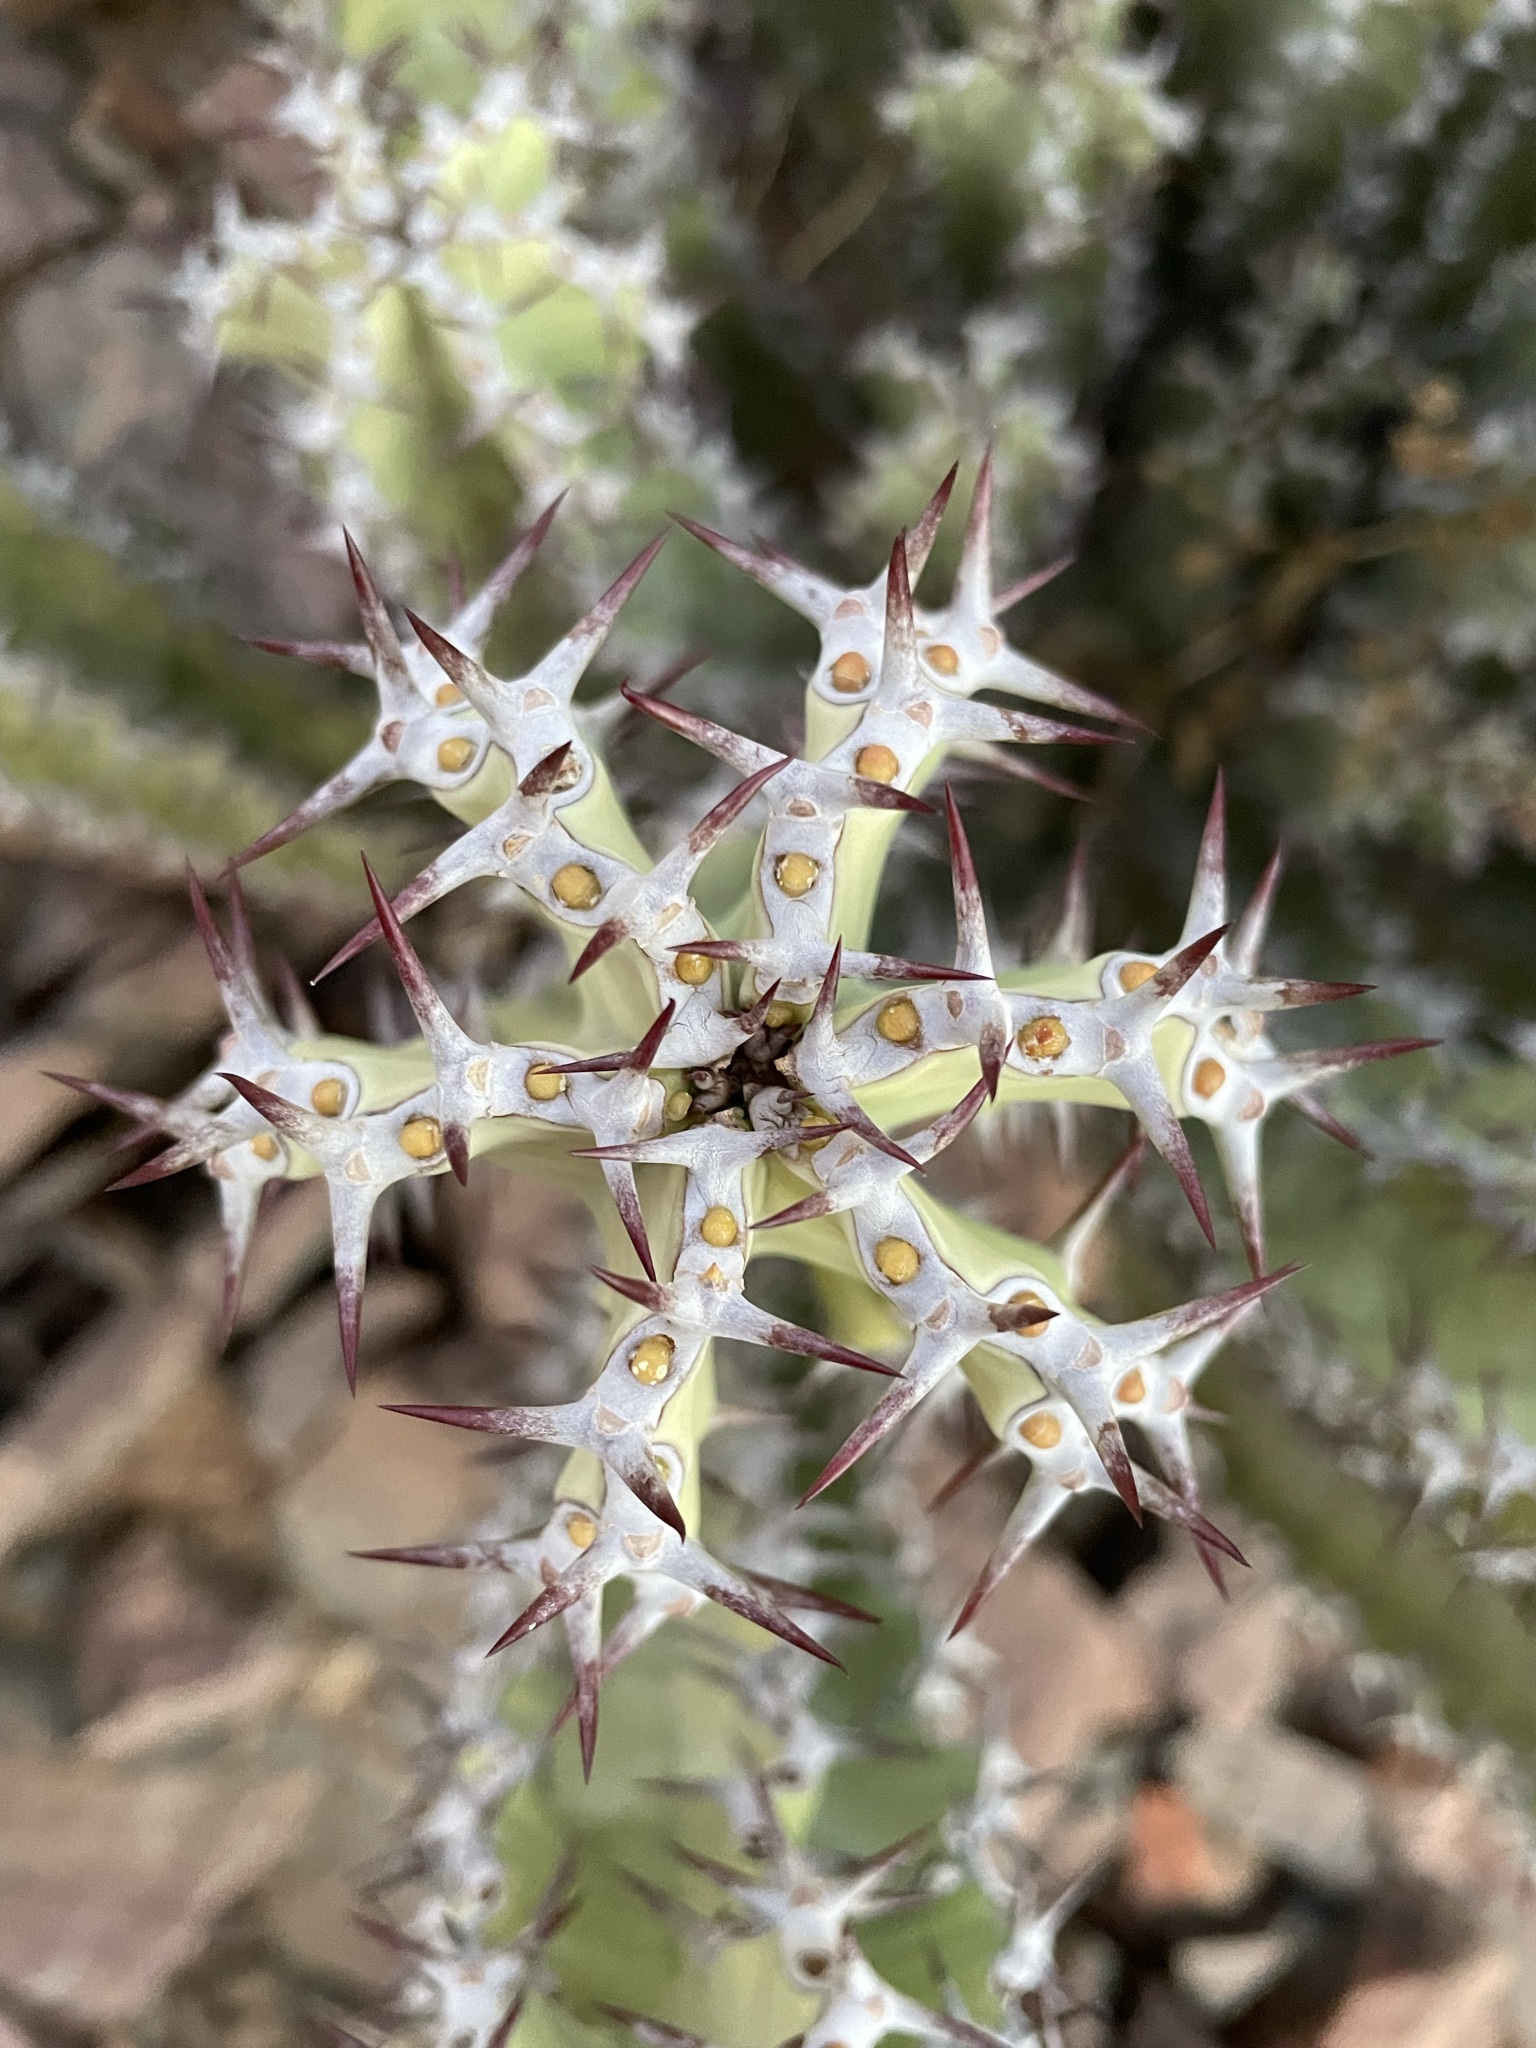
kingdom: Plantae
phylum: Tracheophyta
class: Magnoliopsida
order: Malpighiales
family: Euphorbiaceae
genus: Euphorbia
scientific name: Euphorbia virosa
